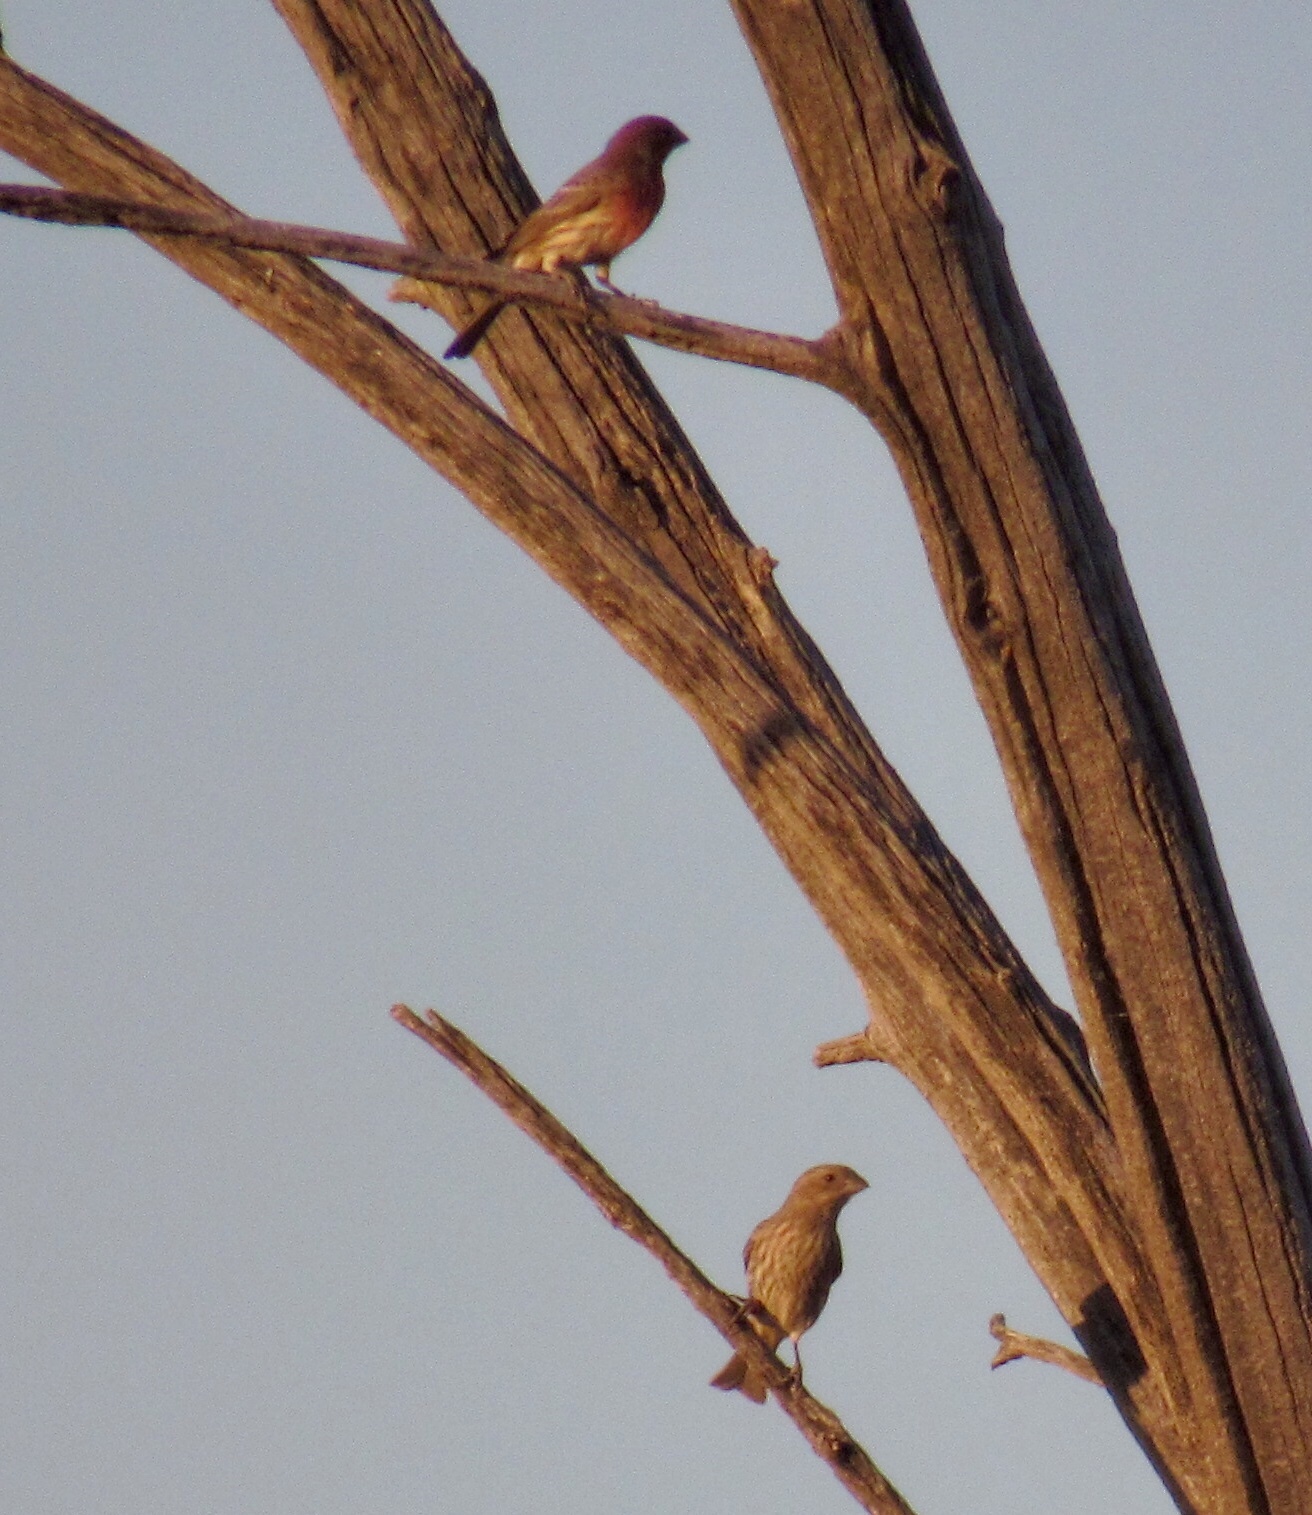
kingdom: Animalia
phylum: Chordata
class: Aves
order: Passeriformes
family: Fringillidae
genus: Haemorhous
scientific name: Haemorhous mexicanus
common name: House finch
